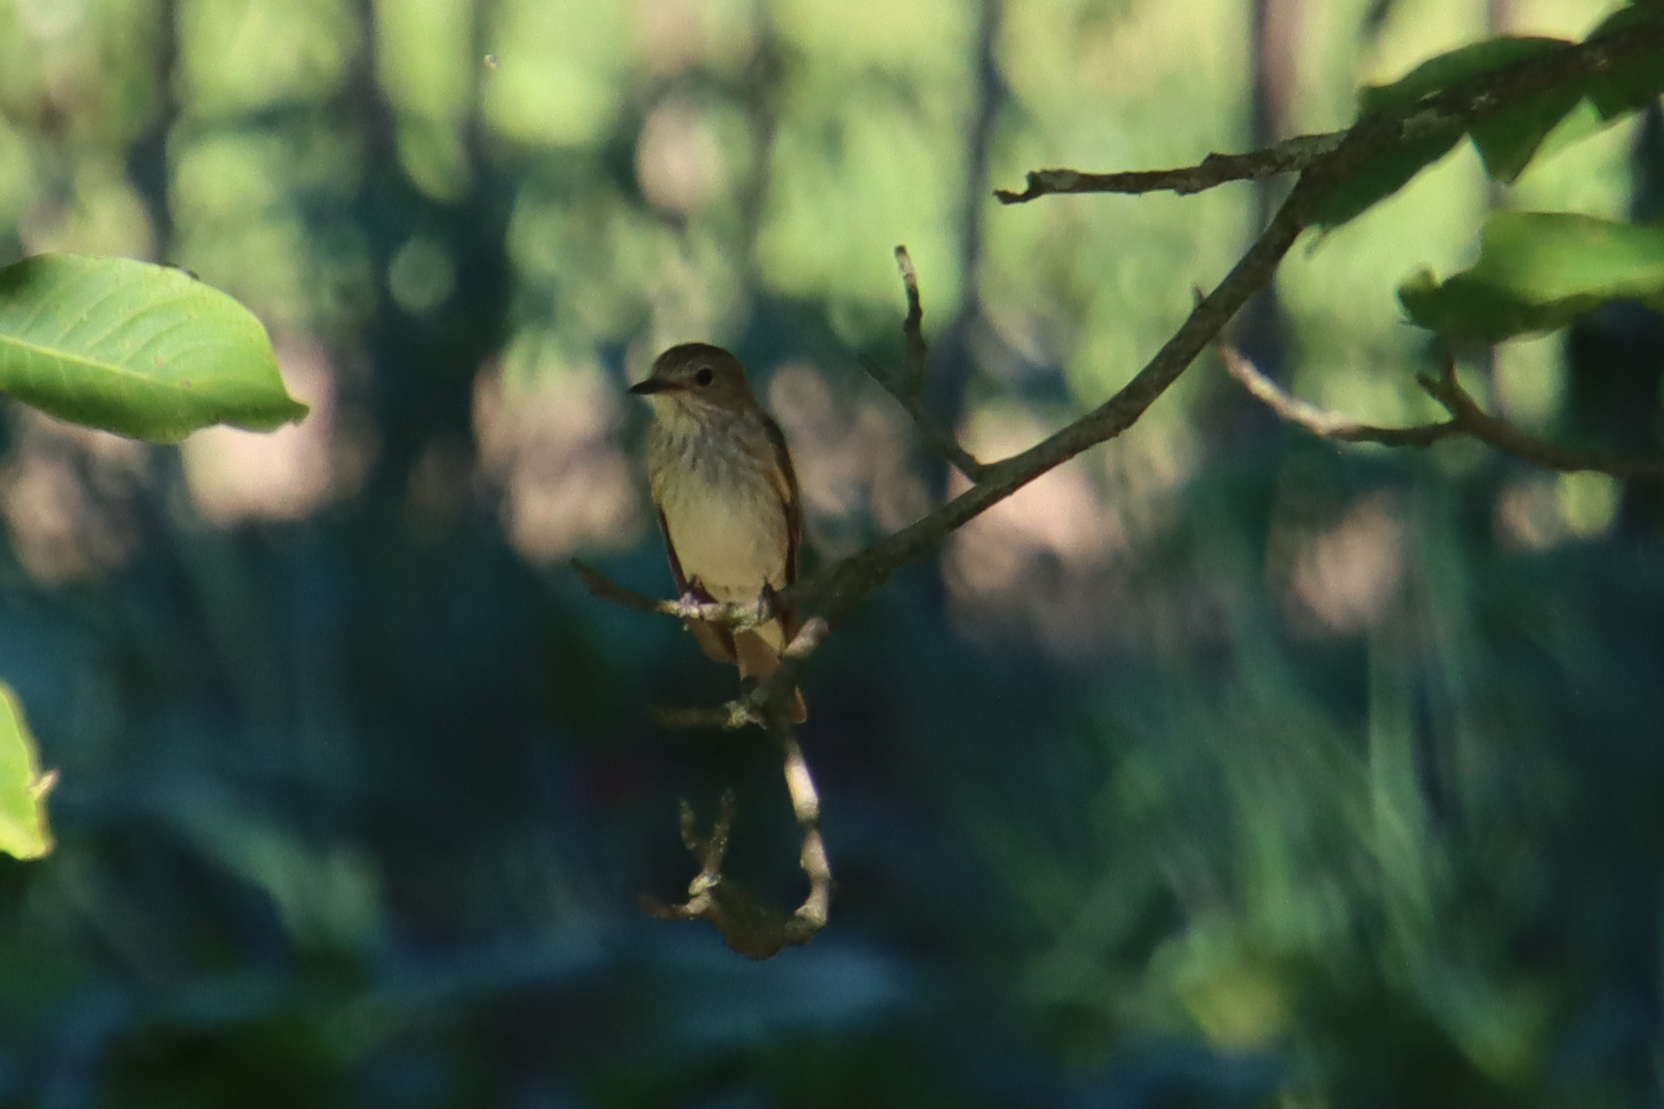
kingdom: Animalia
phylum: Chordata
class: Aves
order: Passeriformes
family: Muscicapidae
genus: Muscicapa
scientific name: Muscicapa striata
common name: Spotted flycatcher
